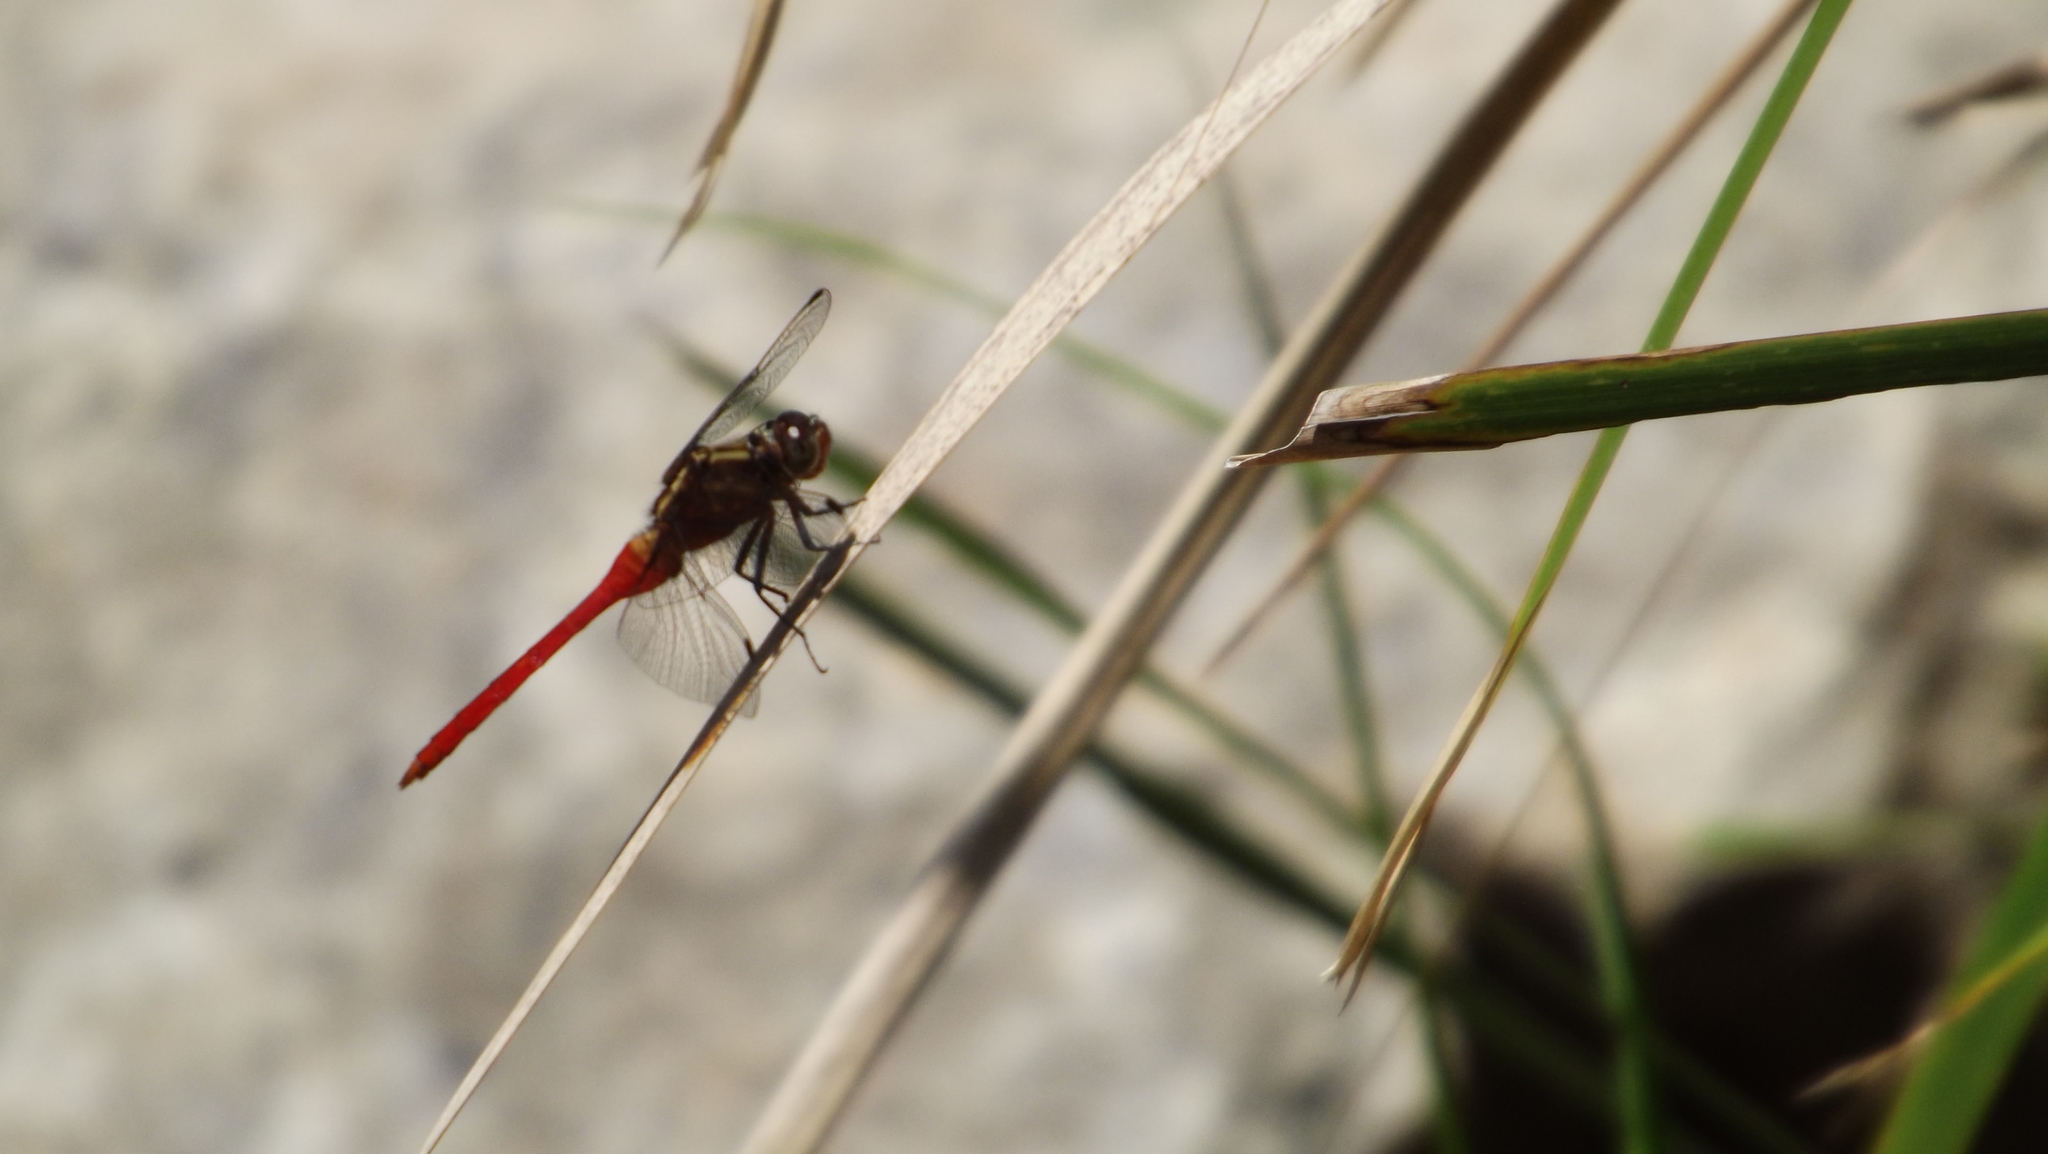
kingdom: Animalia
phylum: Arthropoda
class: Insecta
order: Odonata
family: Libellulidae
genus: Orthetrum
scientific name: Orthetrum villosovittatum
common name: Firery skimmer
